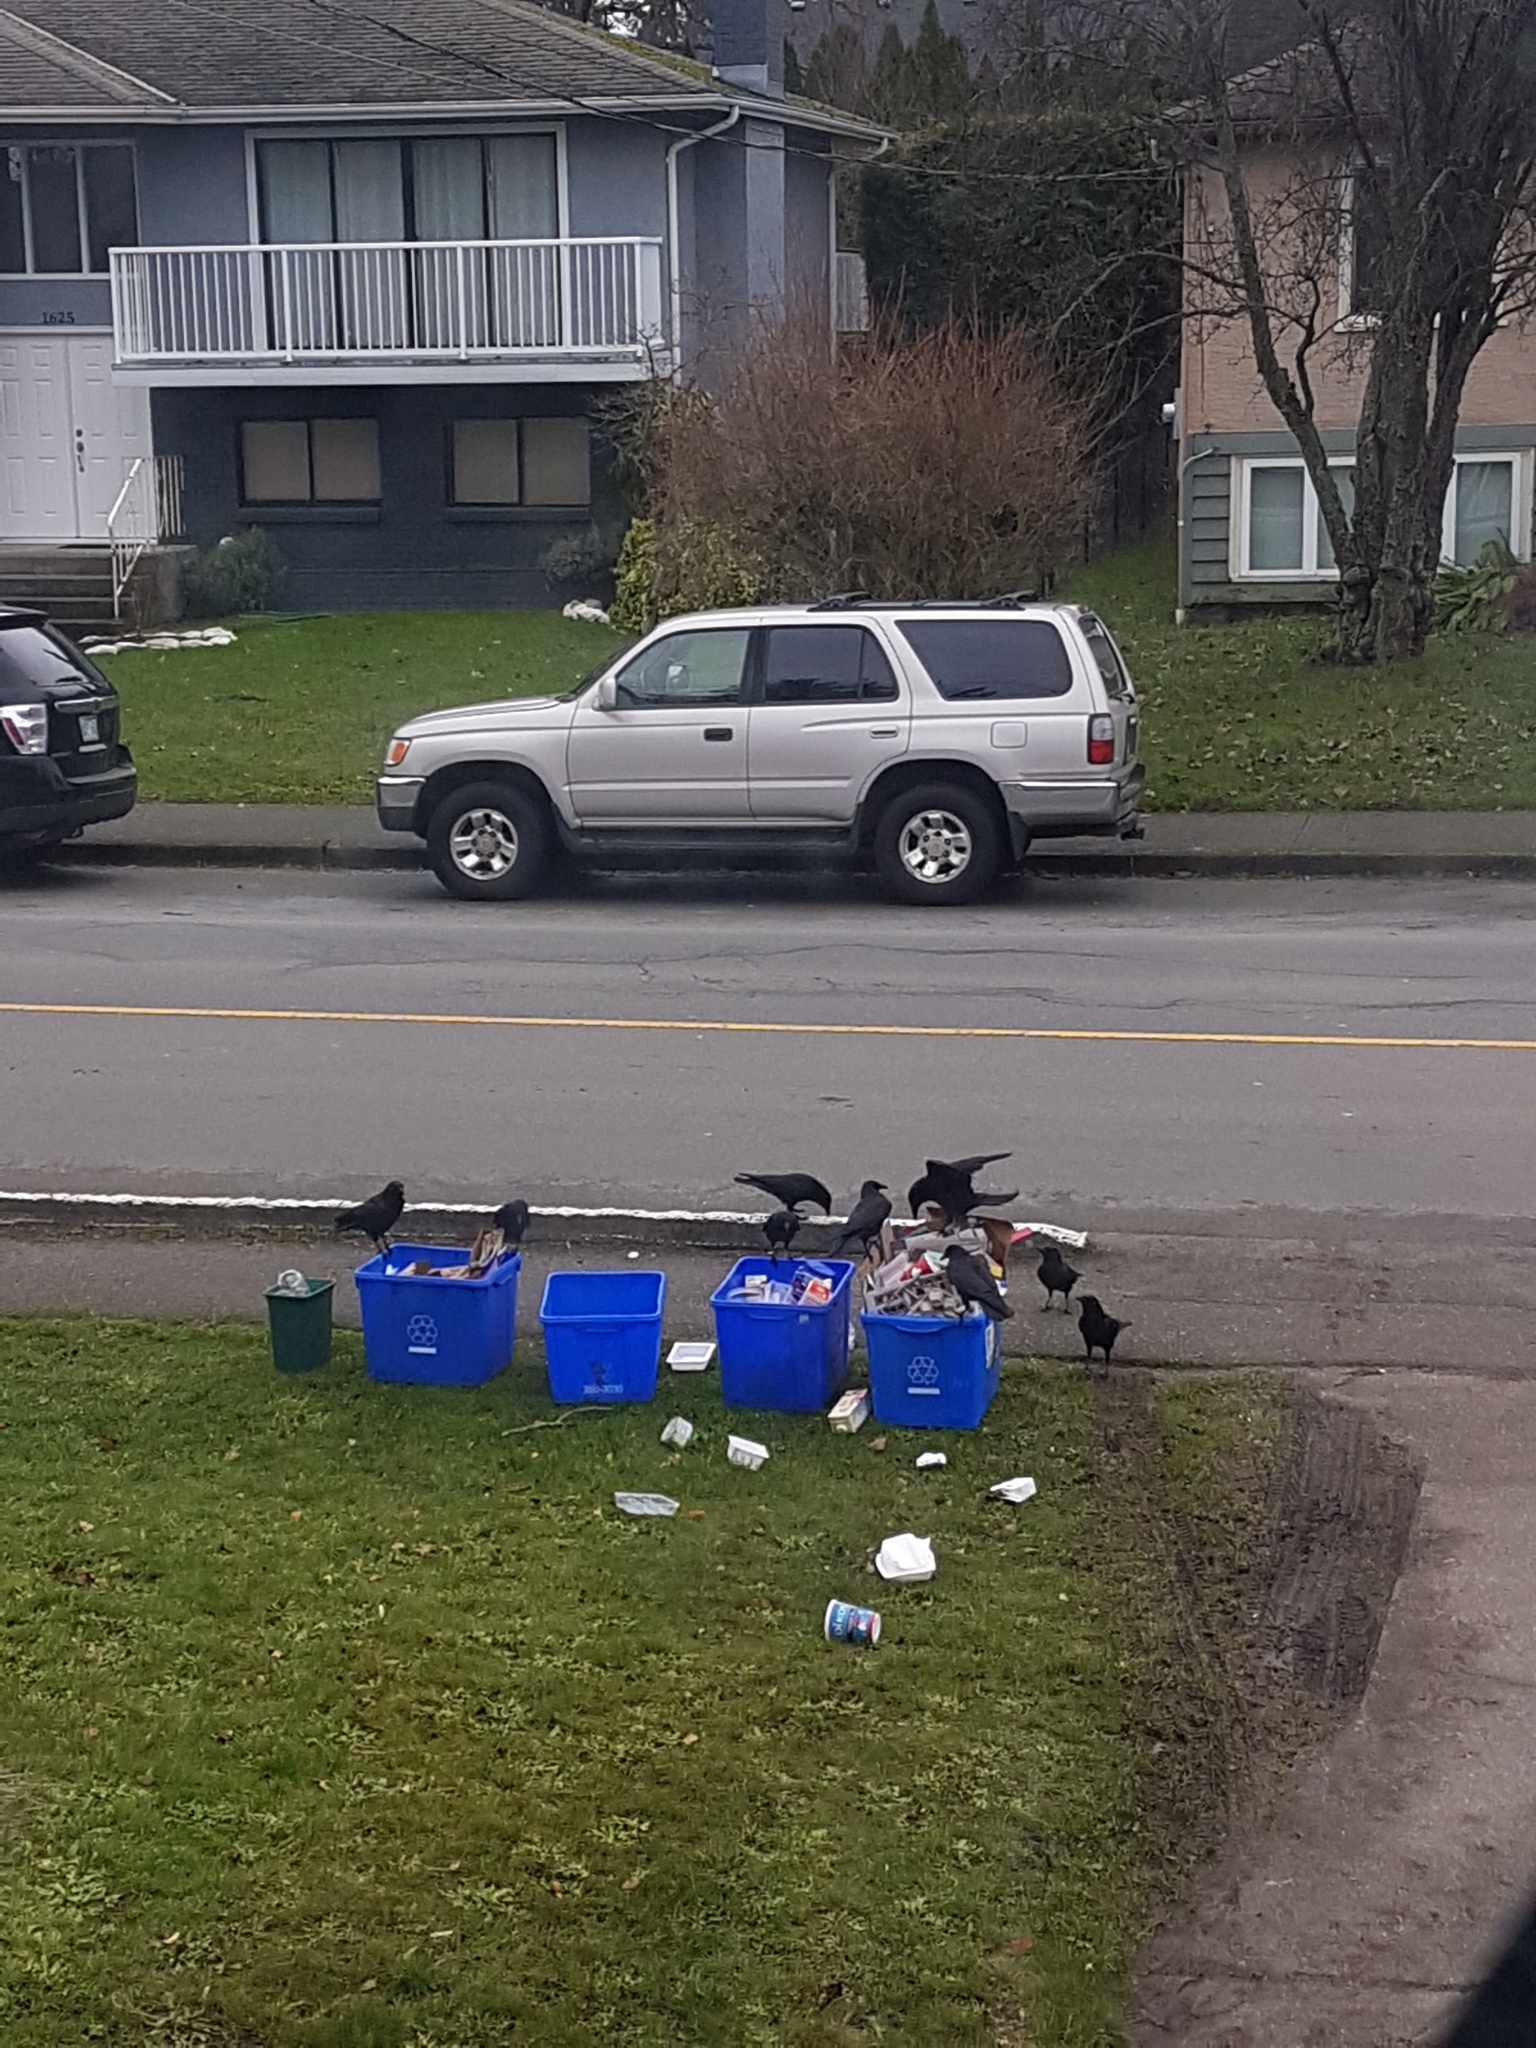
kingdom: Animalia
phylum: Chordata
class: Aves
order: Passeriformes
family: Corvidae
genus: Corvus
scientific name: Corvus brachyrhynchos
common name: American crow
